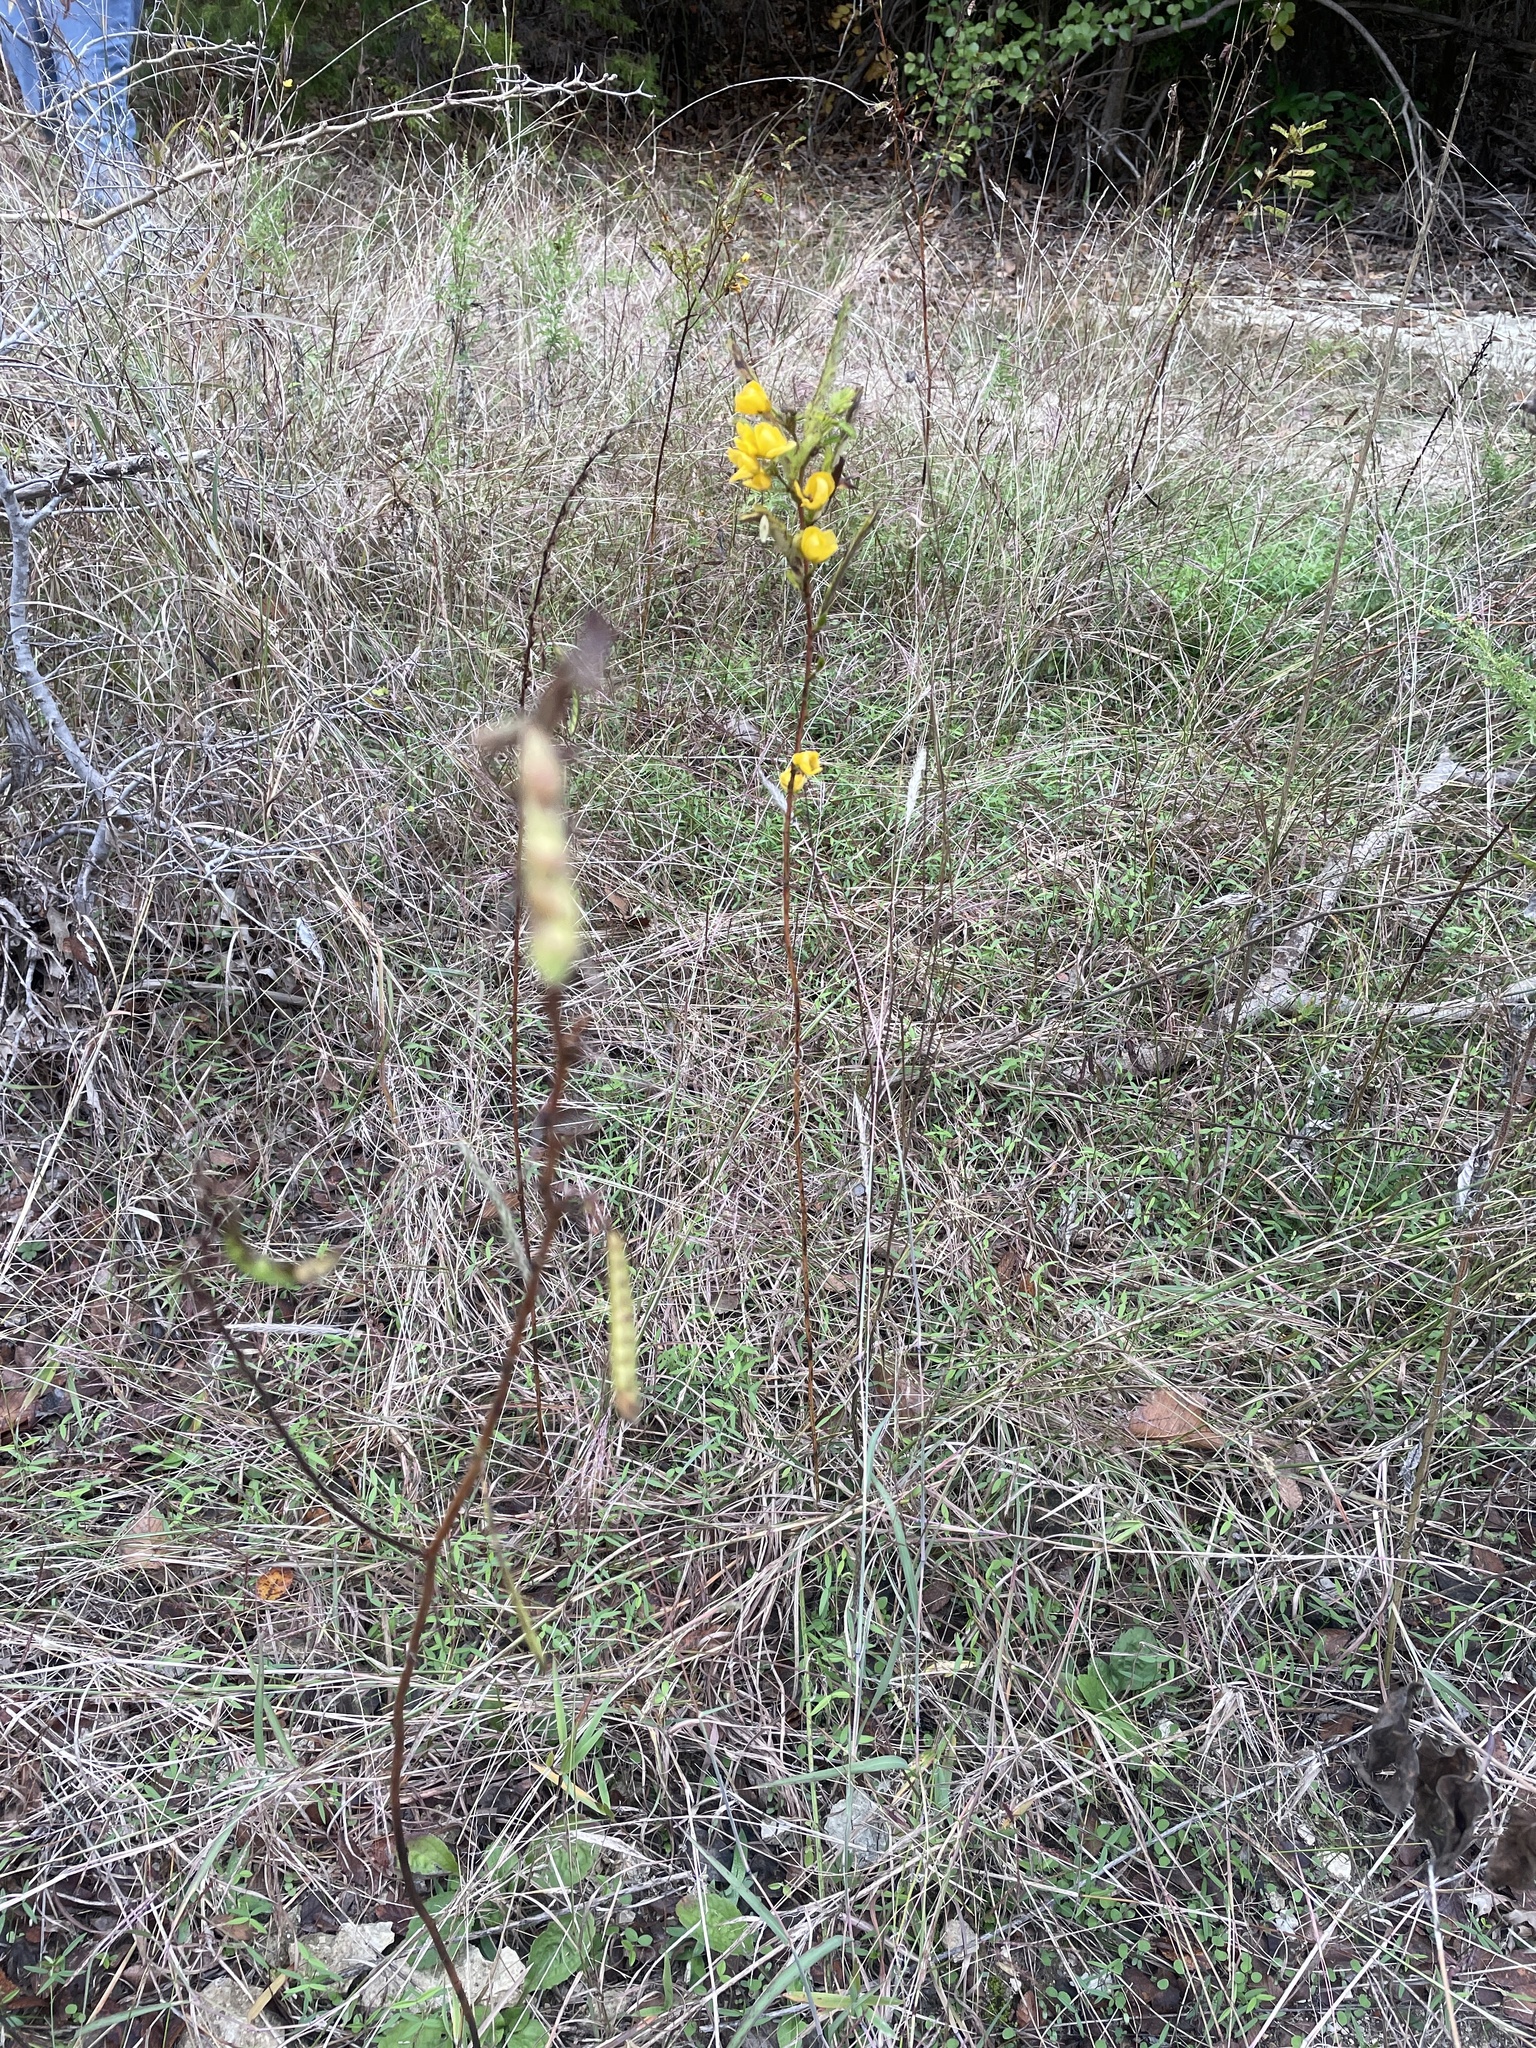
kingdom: Plantae
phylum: Tracheophyta
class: Magnoliopsida
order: Fabales
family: Fabaceae
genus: Chamaecrista
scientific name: Chamaecrista fasciculata
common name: Golden cassia
